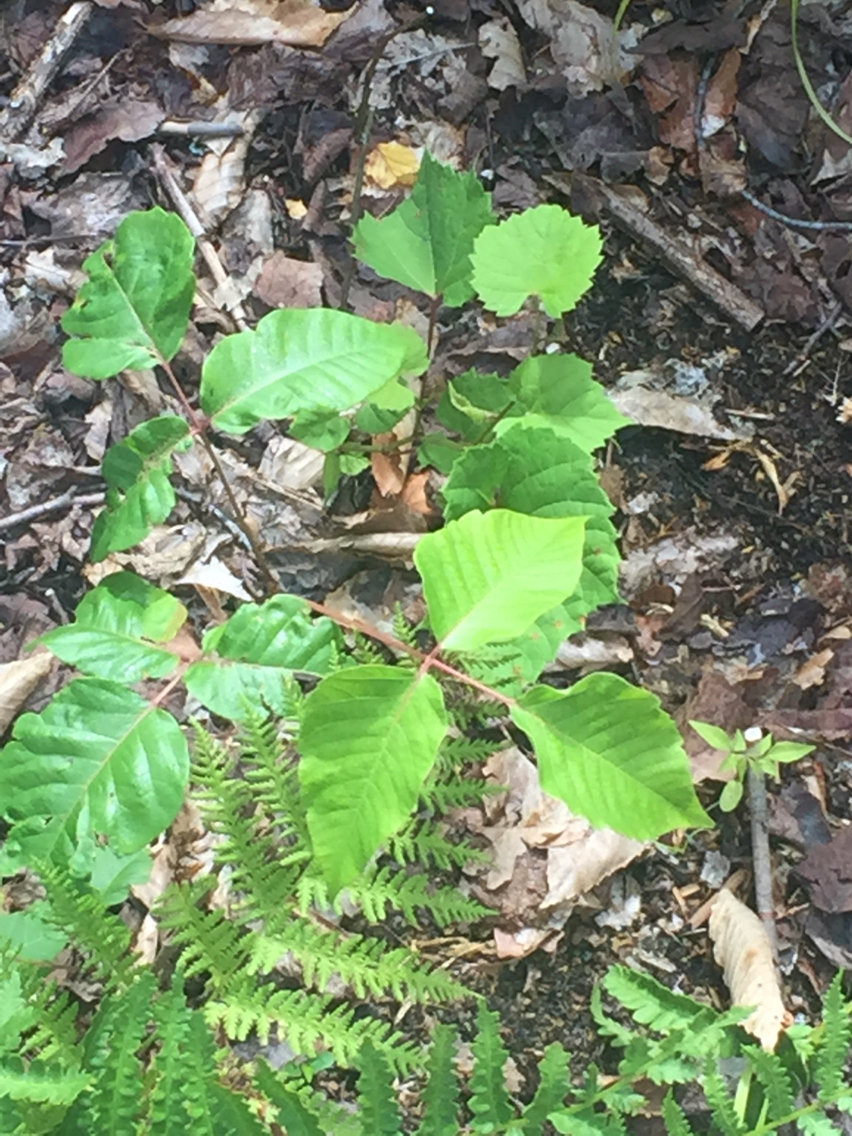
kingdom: Plantae
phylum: Tracheophyta
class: Magnoliopsida
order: Sapindales
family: Anacardiaceae
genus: Toxicodendron
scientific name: Toxicodendron radicans
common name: Poison ivy
